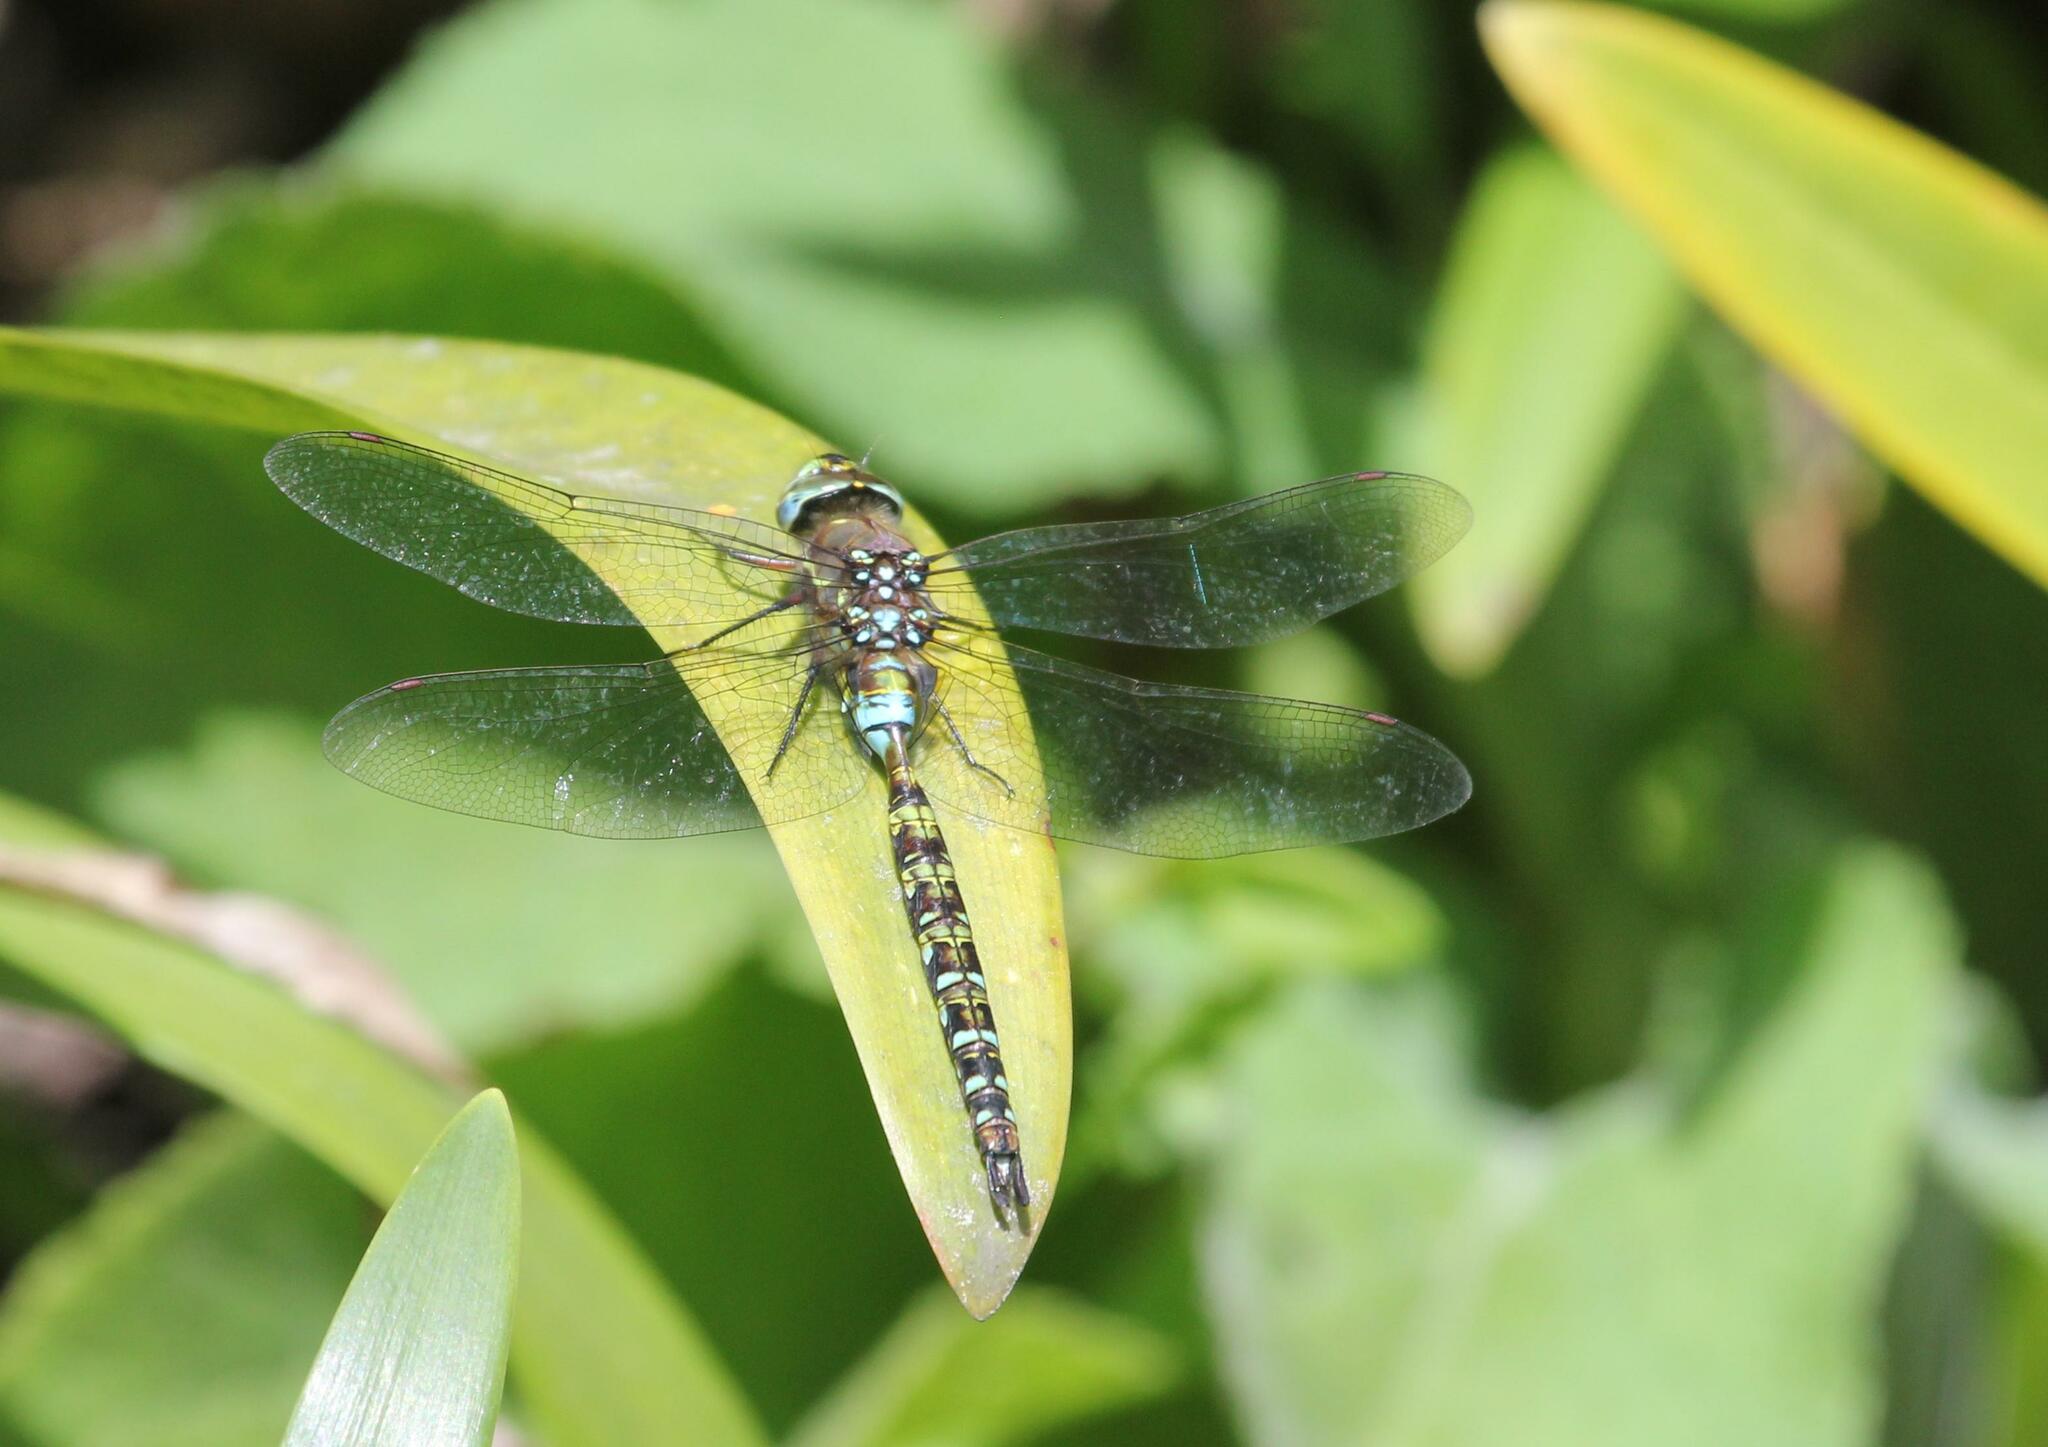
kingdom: Animalia
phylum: Arthropoda
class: Insecta
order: Odonata
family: Aeshnidae
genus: Rhionaeschna
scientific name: Rhionaeschna marchali
